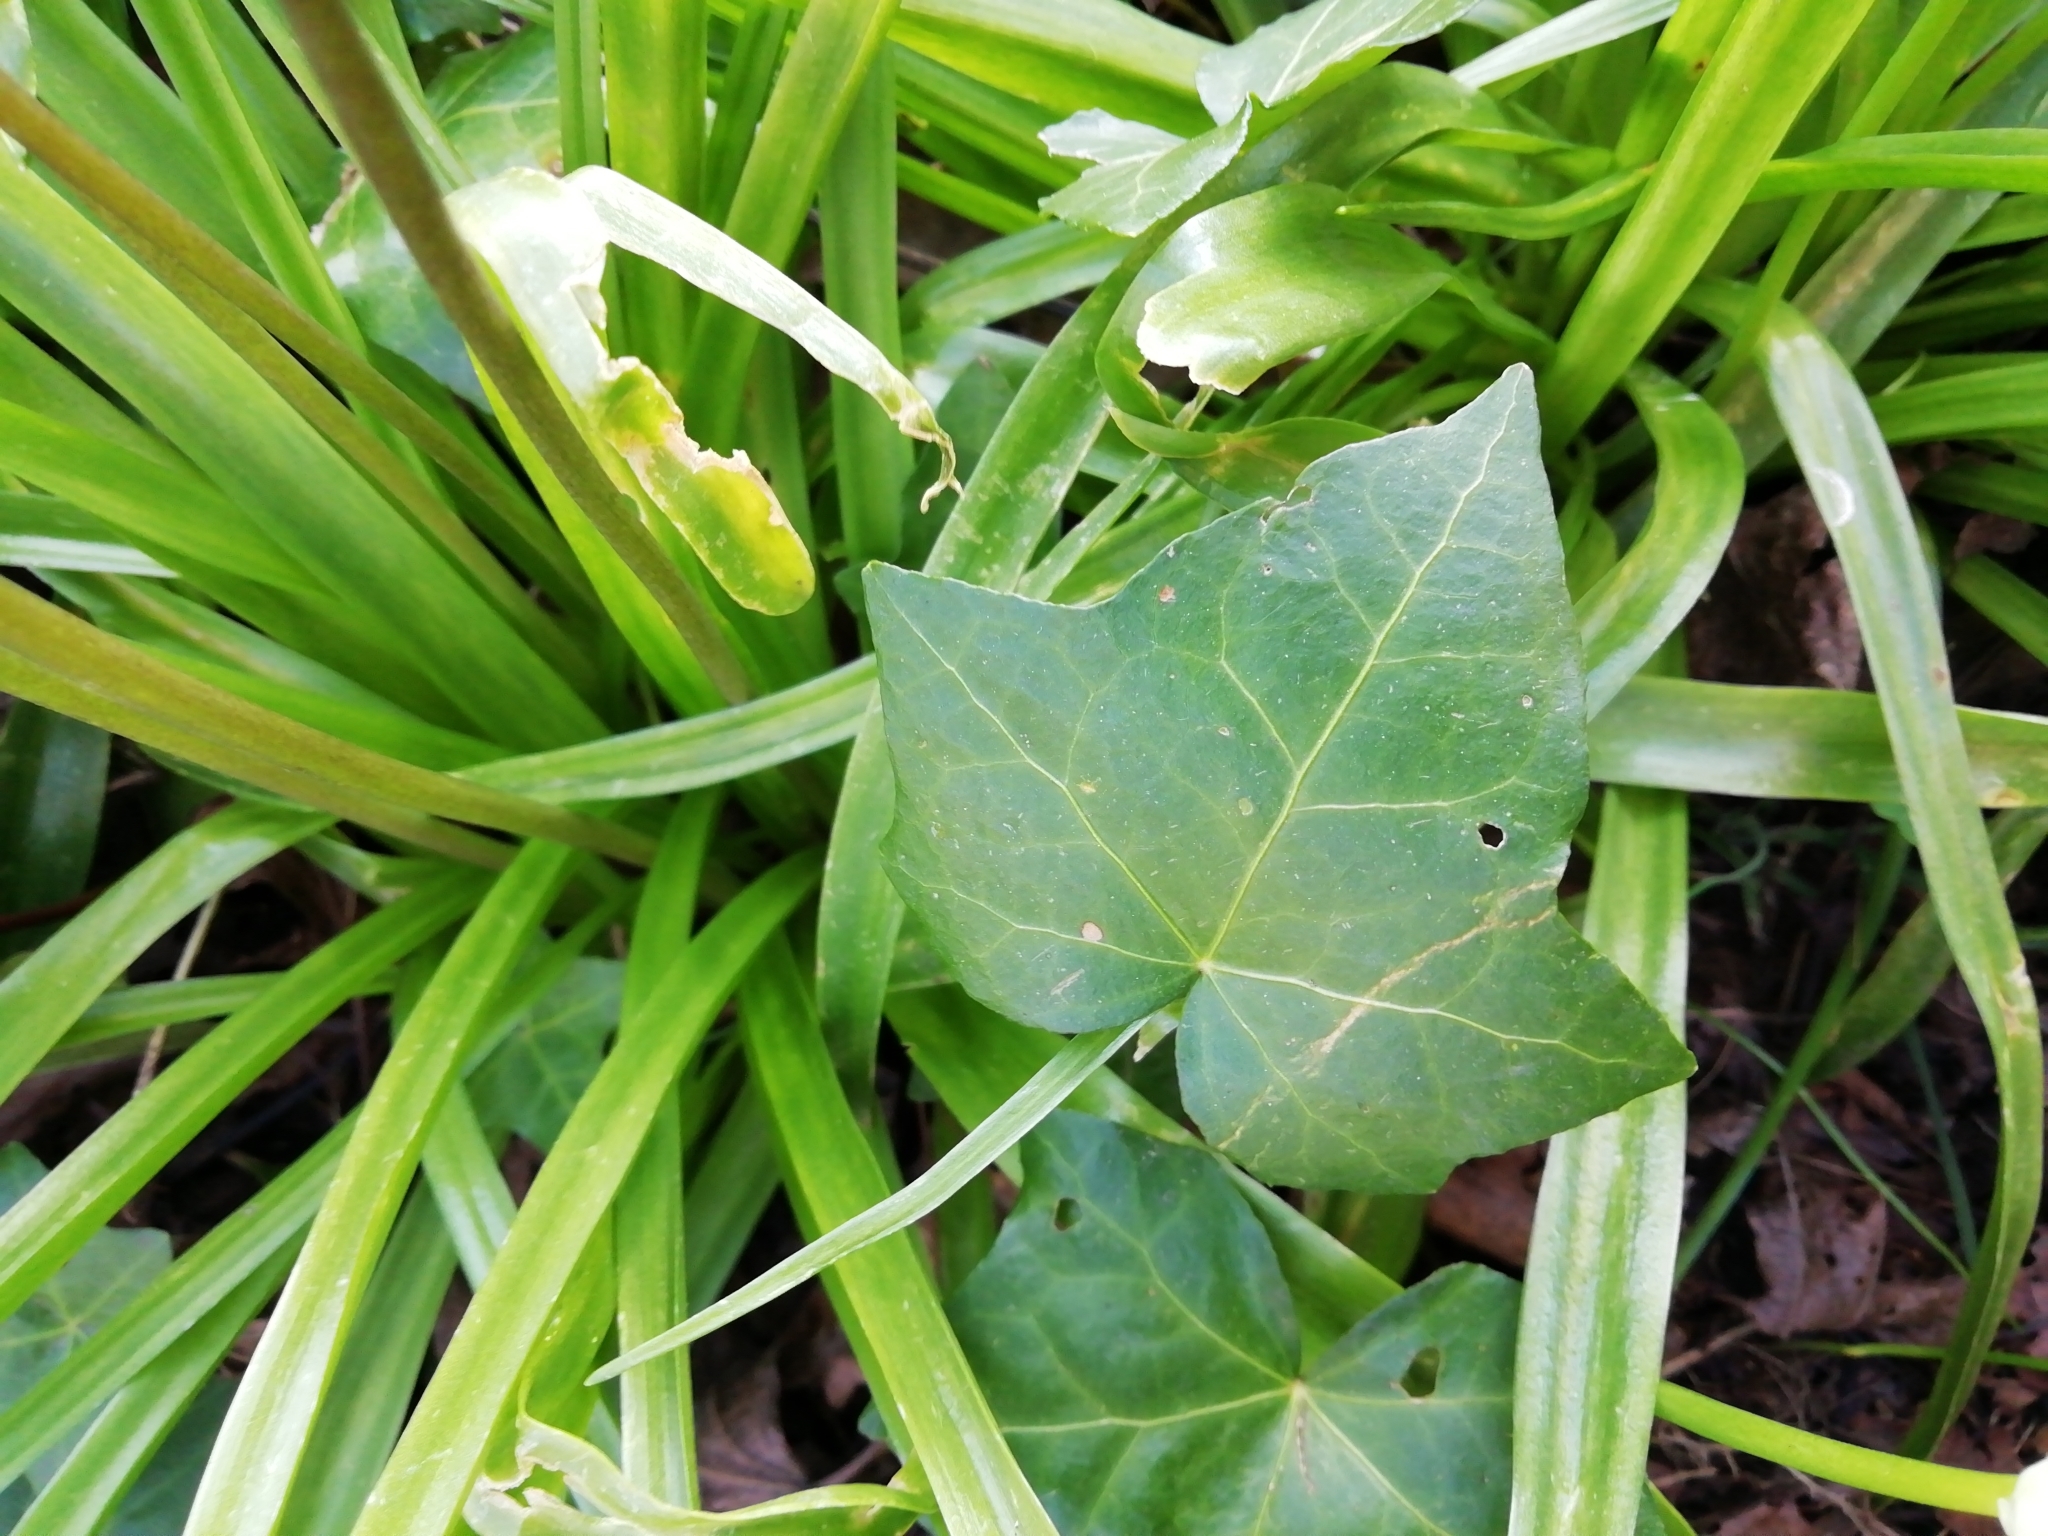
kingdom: Plantae
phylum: Tracheophyta
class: Magnoliopsida
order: Apiales
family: Araliaceae
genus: Hedera
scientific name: Hedera helix
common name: Ivy
